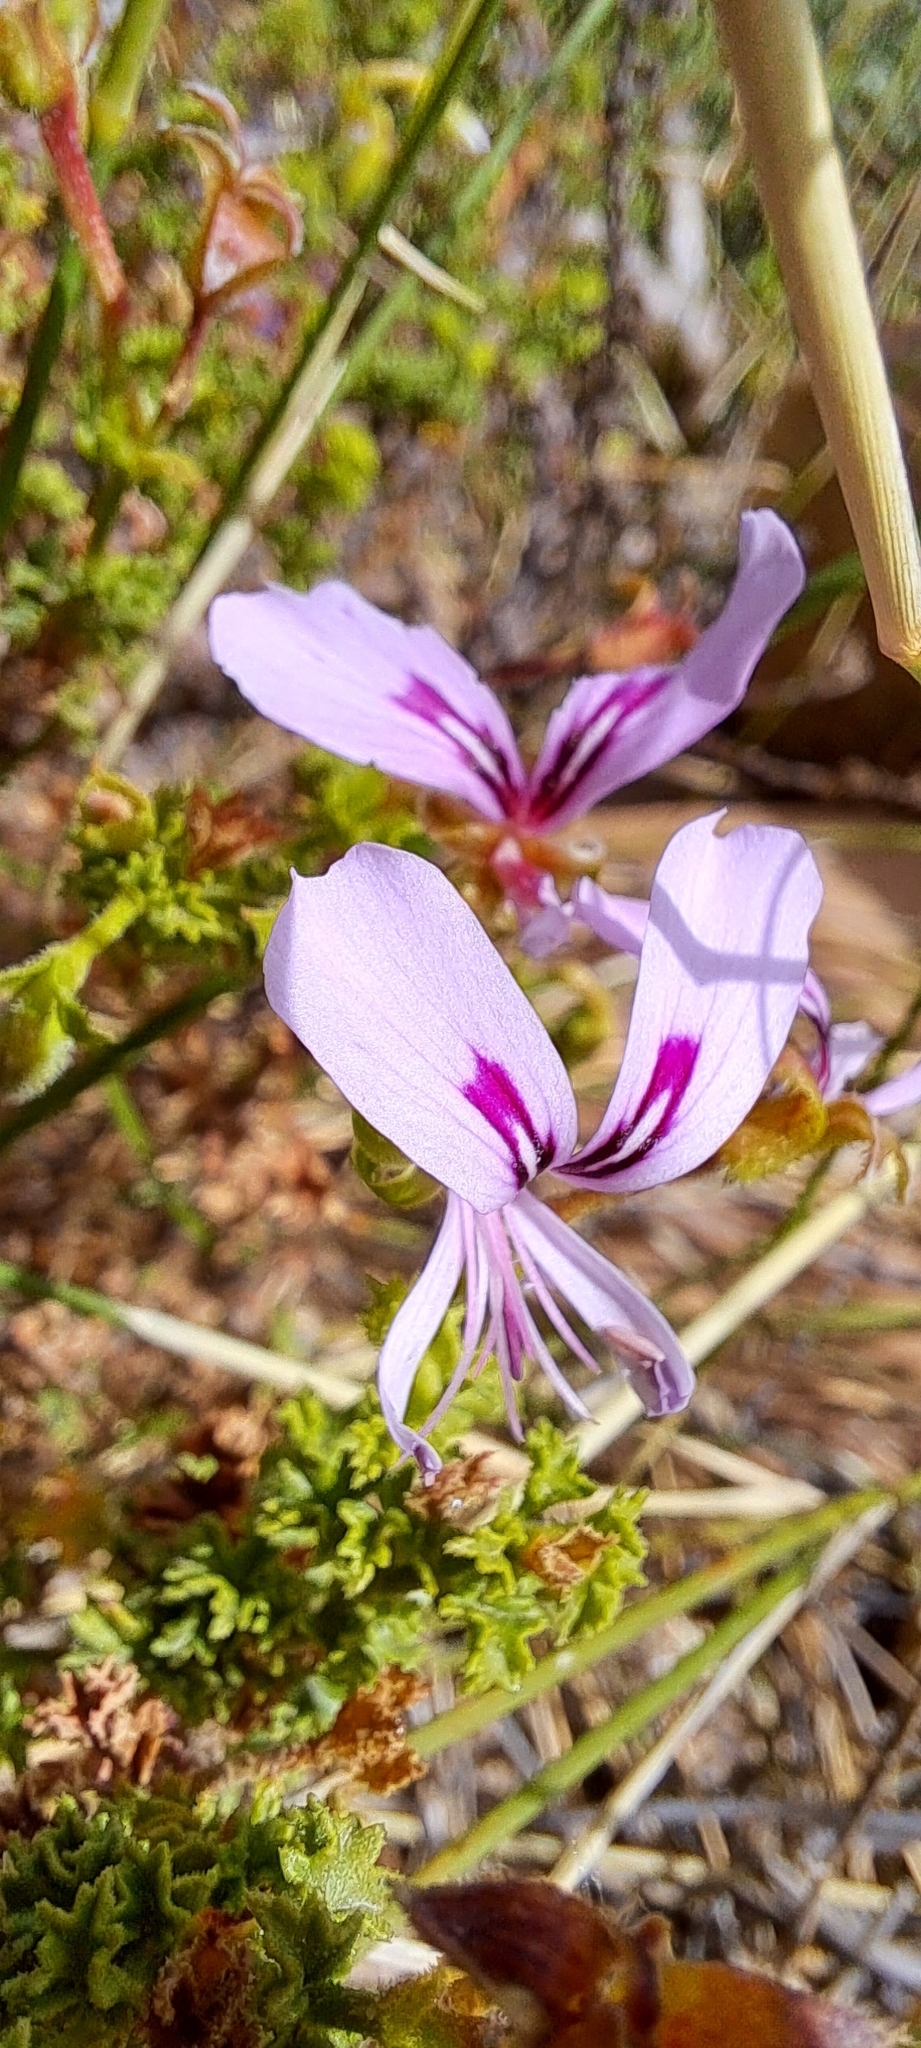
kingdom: Plantae
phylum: Tracheophyta
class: Magnoliopsida
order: Geraniales
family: Geraniaceae
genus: Pelargonium
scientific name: Pelargonium crispum
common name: Crisped-leaf pelargonium
